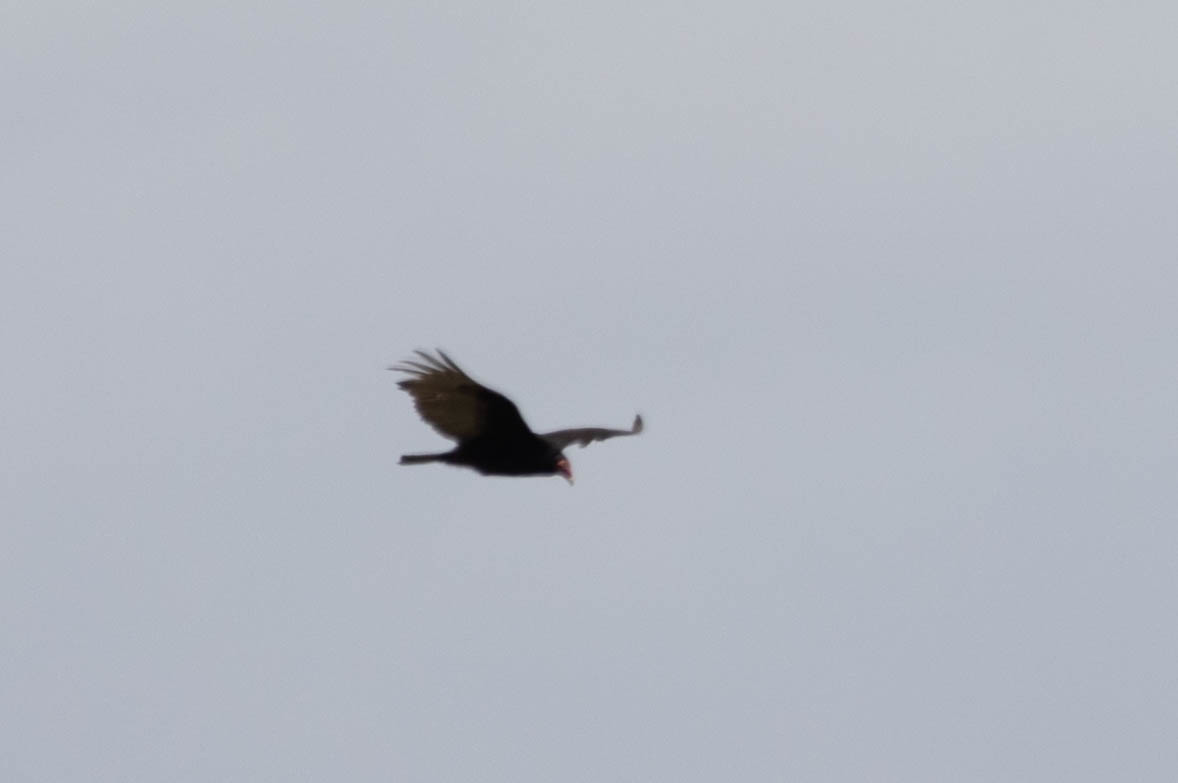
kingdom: Animalia
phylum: Chordata
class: Aves
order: Accipitriformes
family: Cathartidae
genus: Cathartes
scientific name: Cathartes aura
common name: Turkey vulture
